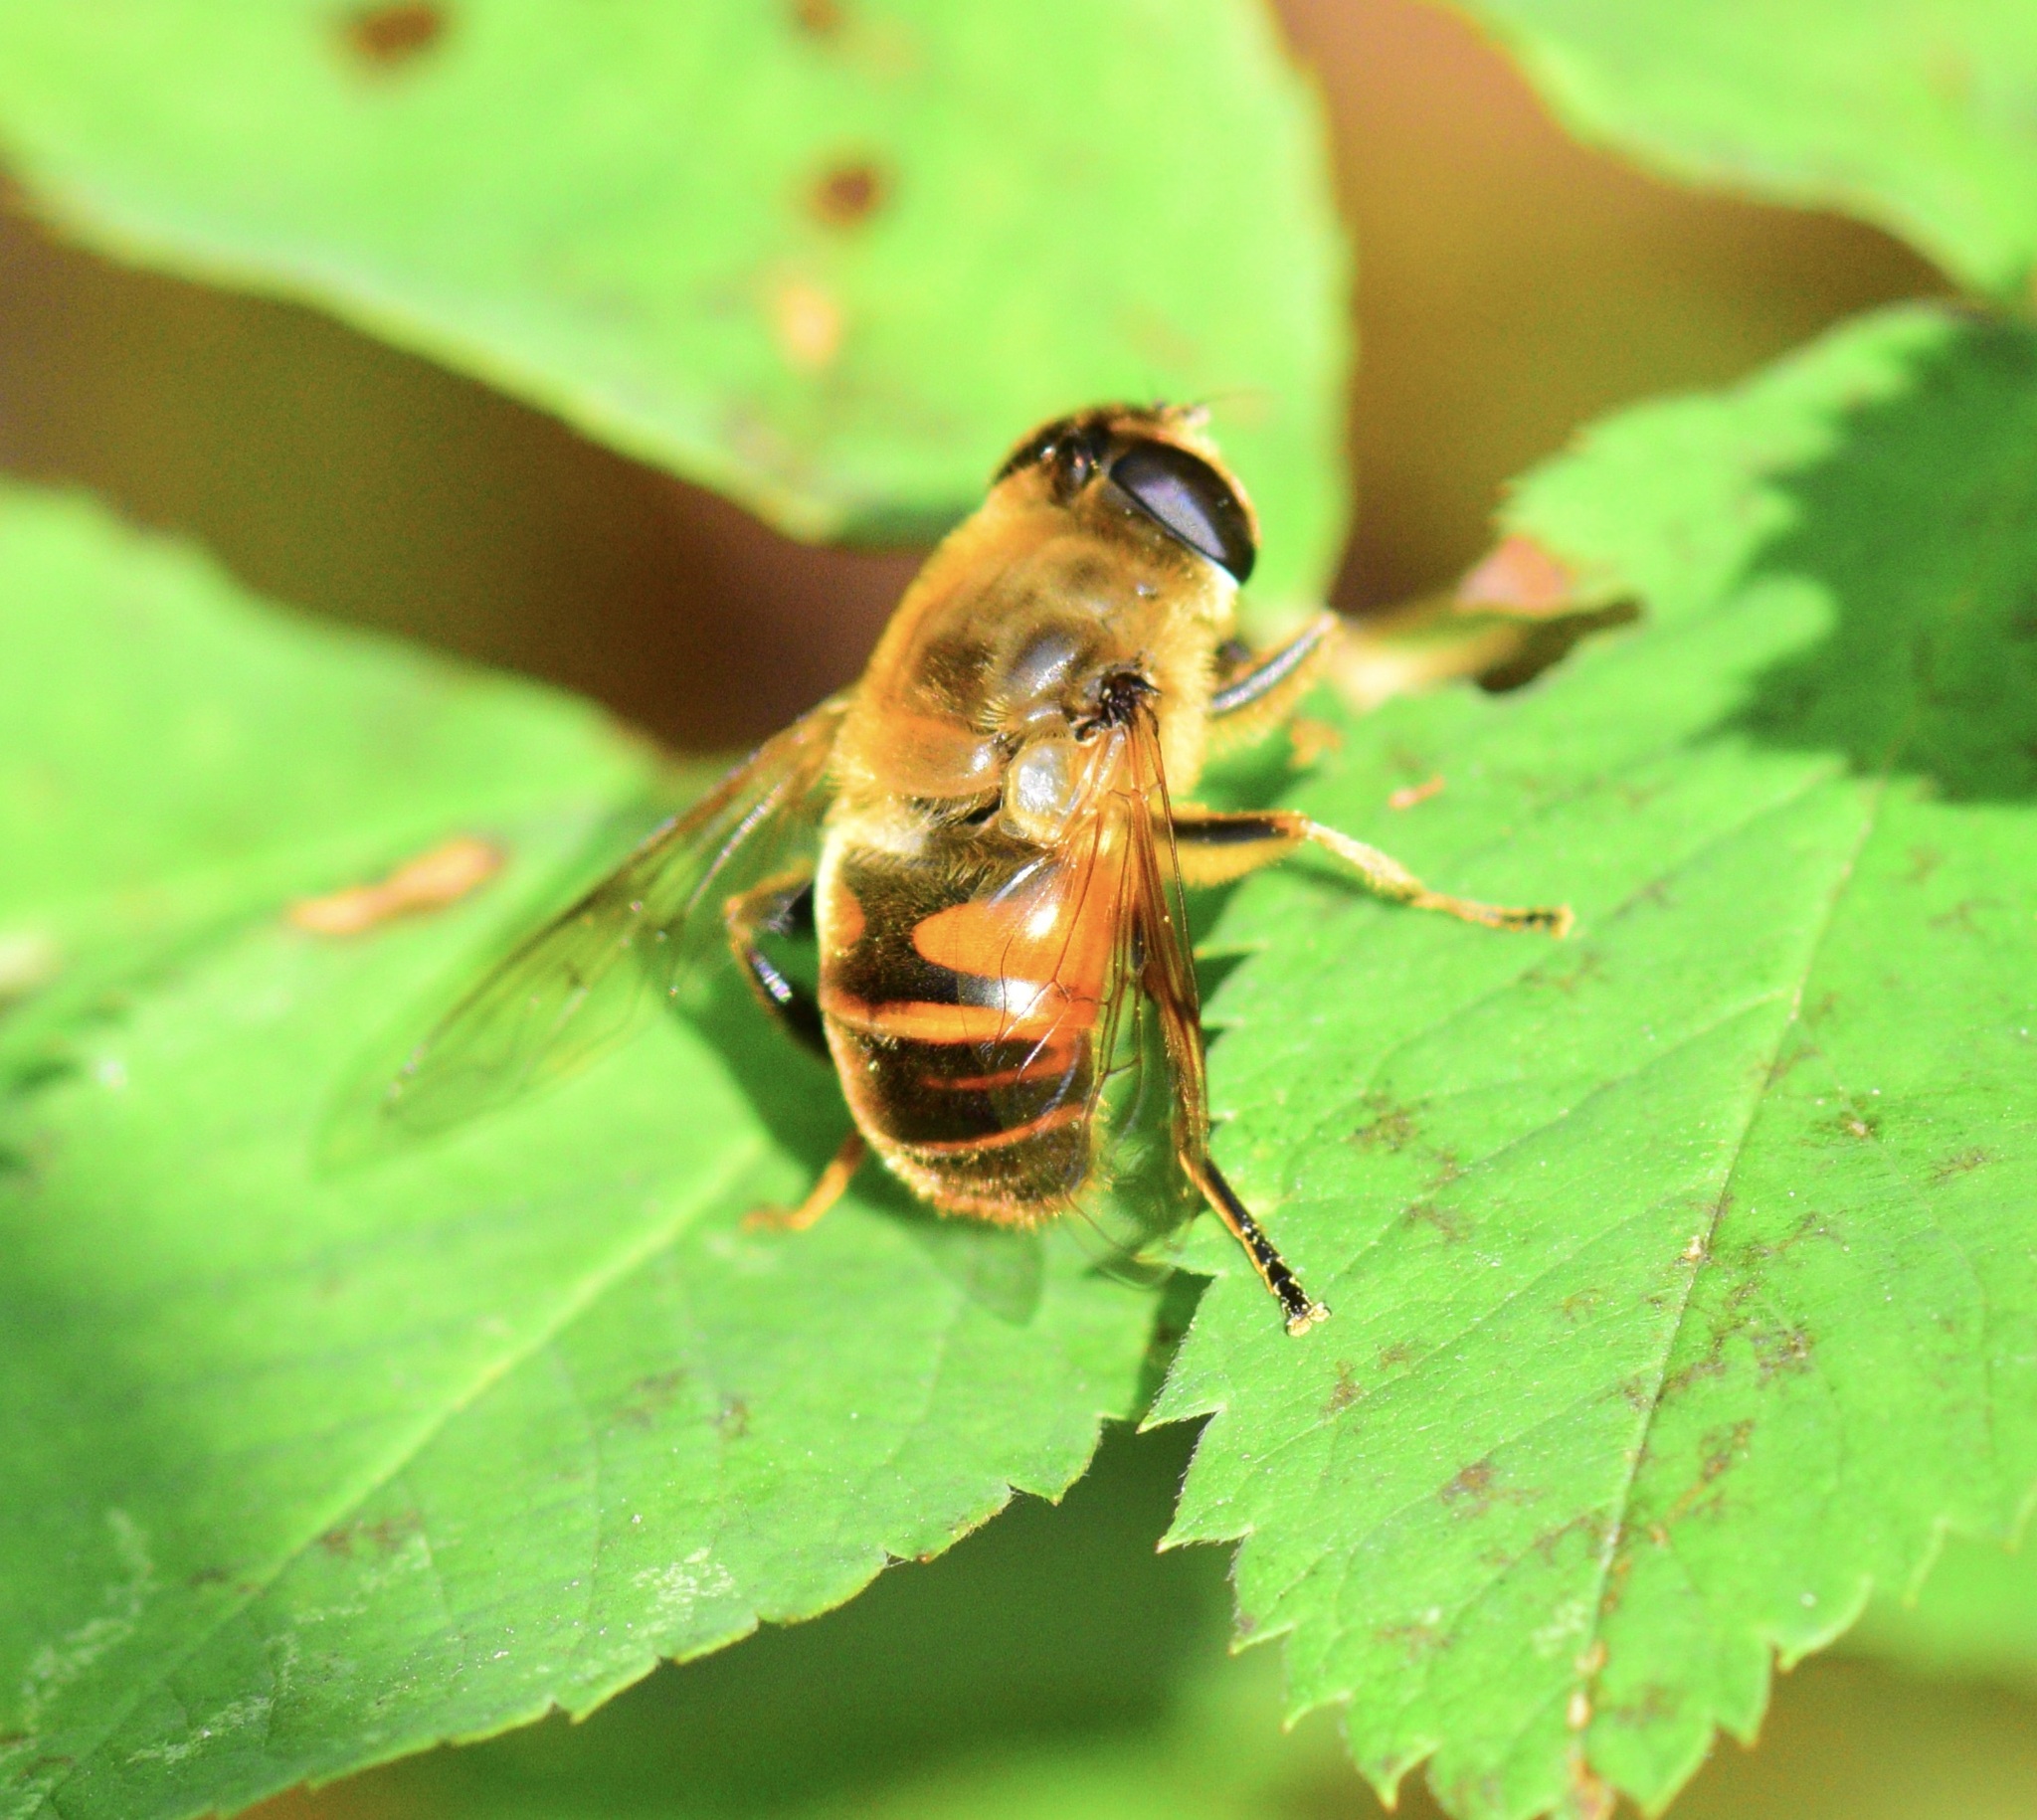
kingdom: Animalia
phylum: Arthropoda
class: Insecta
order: Diptera
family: Syrphidae
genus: Eristalis
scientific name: Eristalis tenax
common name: Drone fly
